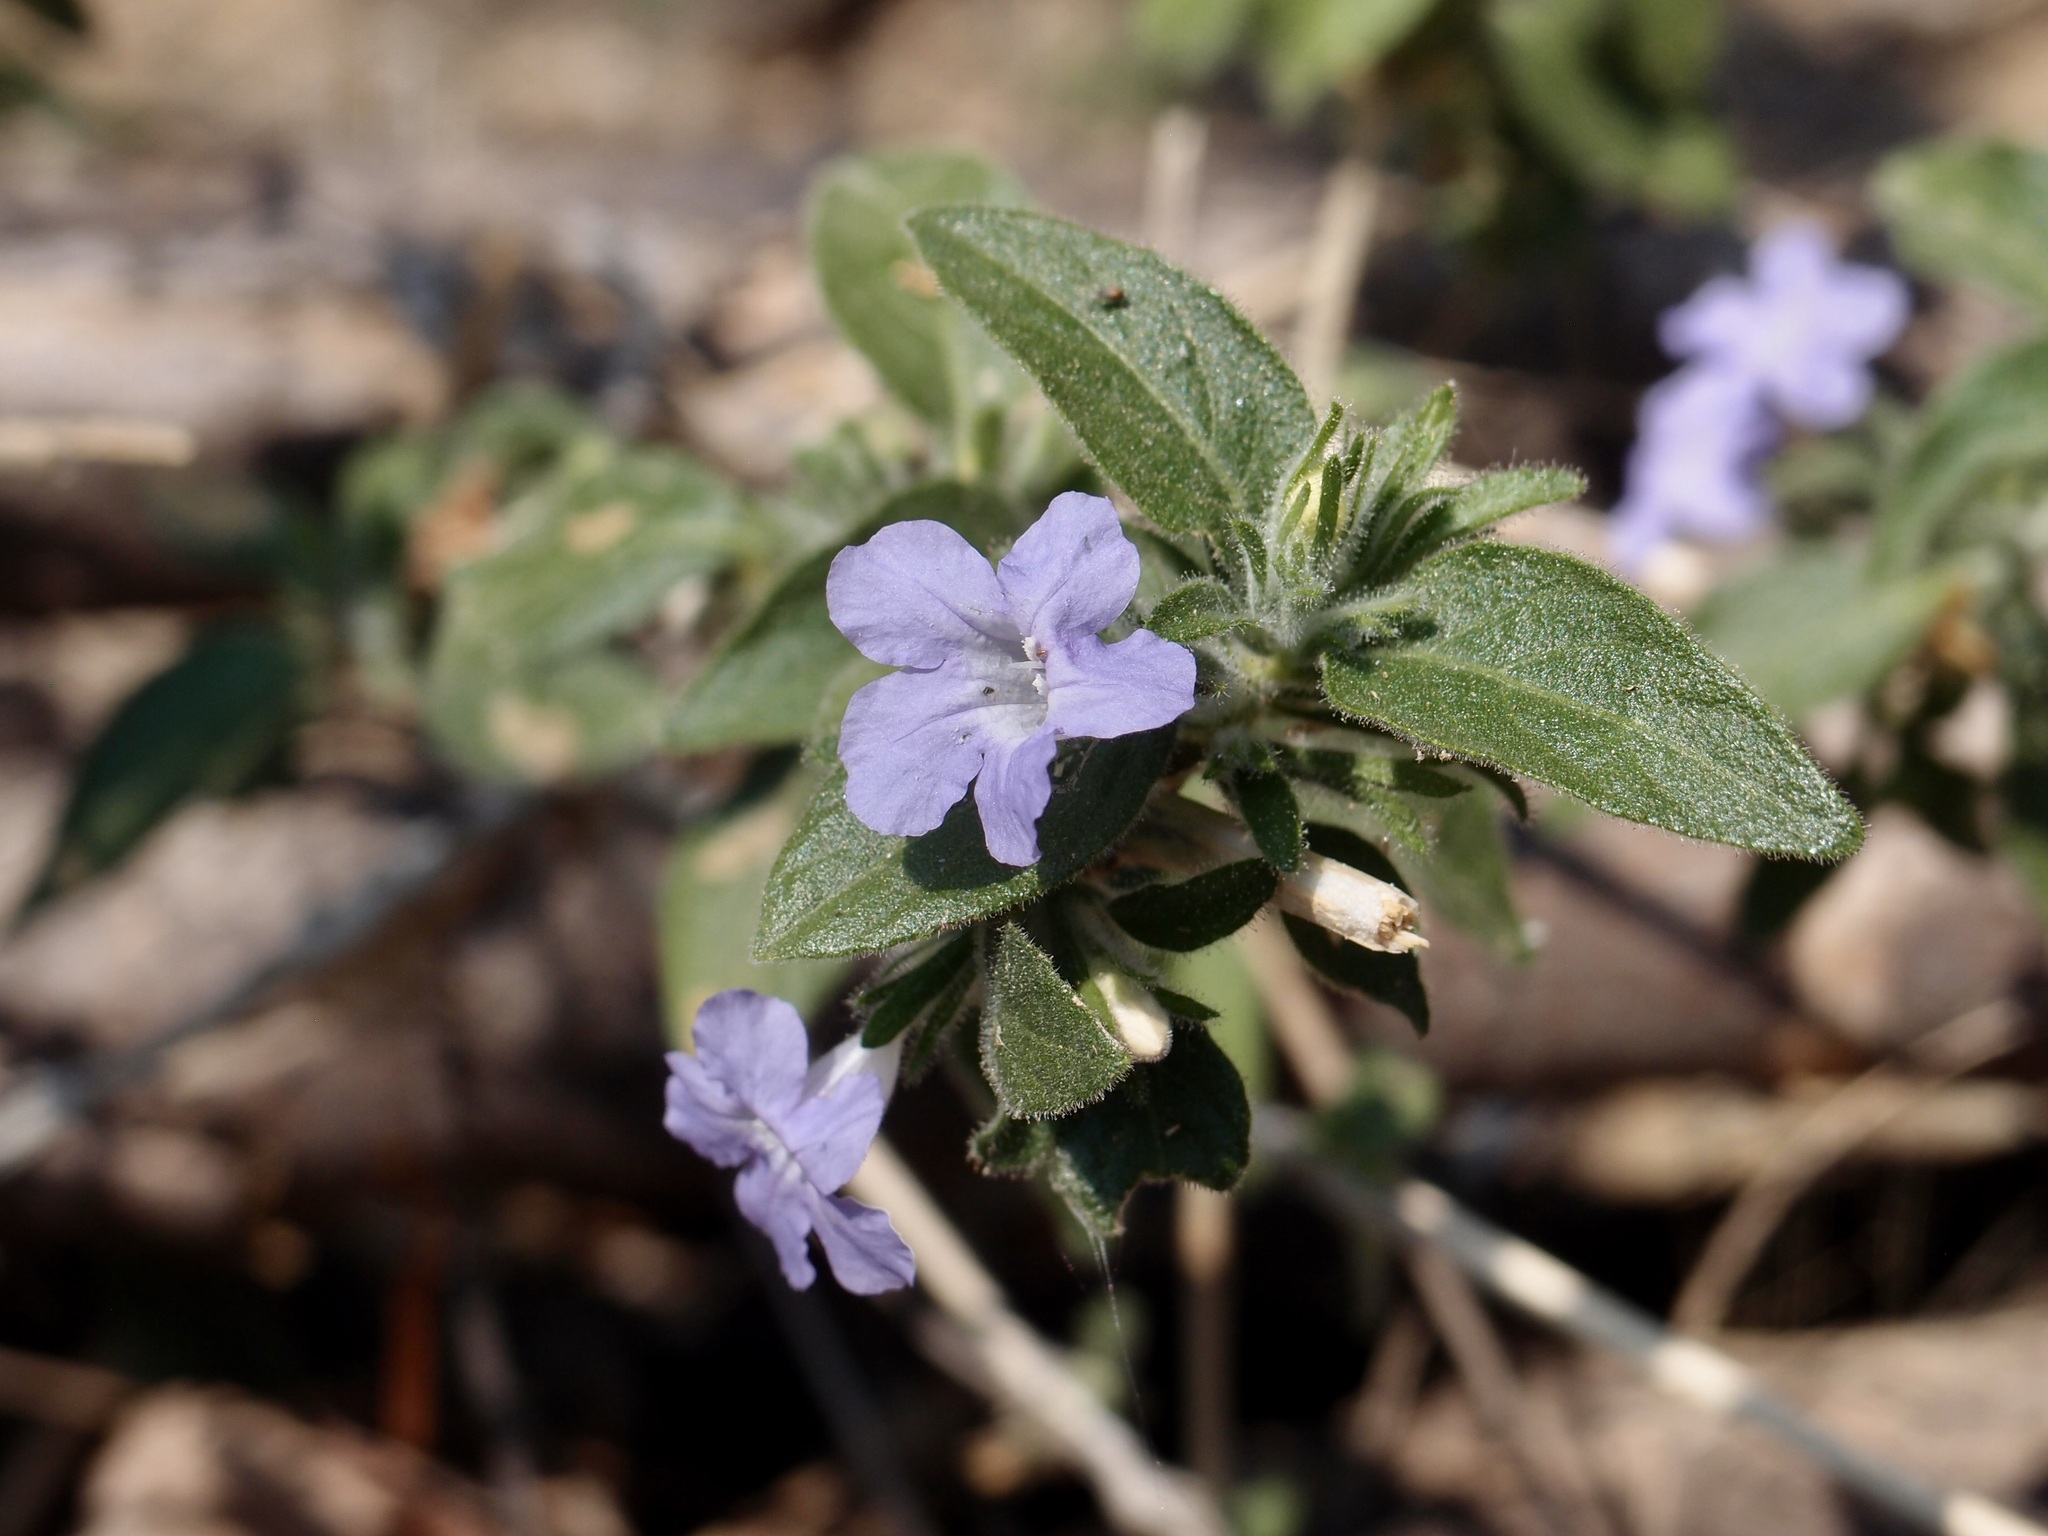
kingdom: Plantae
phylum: Tracheophyta
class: Magnoliopsida
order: Lamiales
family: Acanthaceae
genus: Ruellia
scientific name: Ruellia inundata
